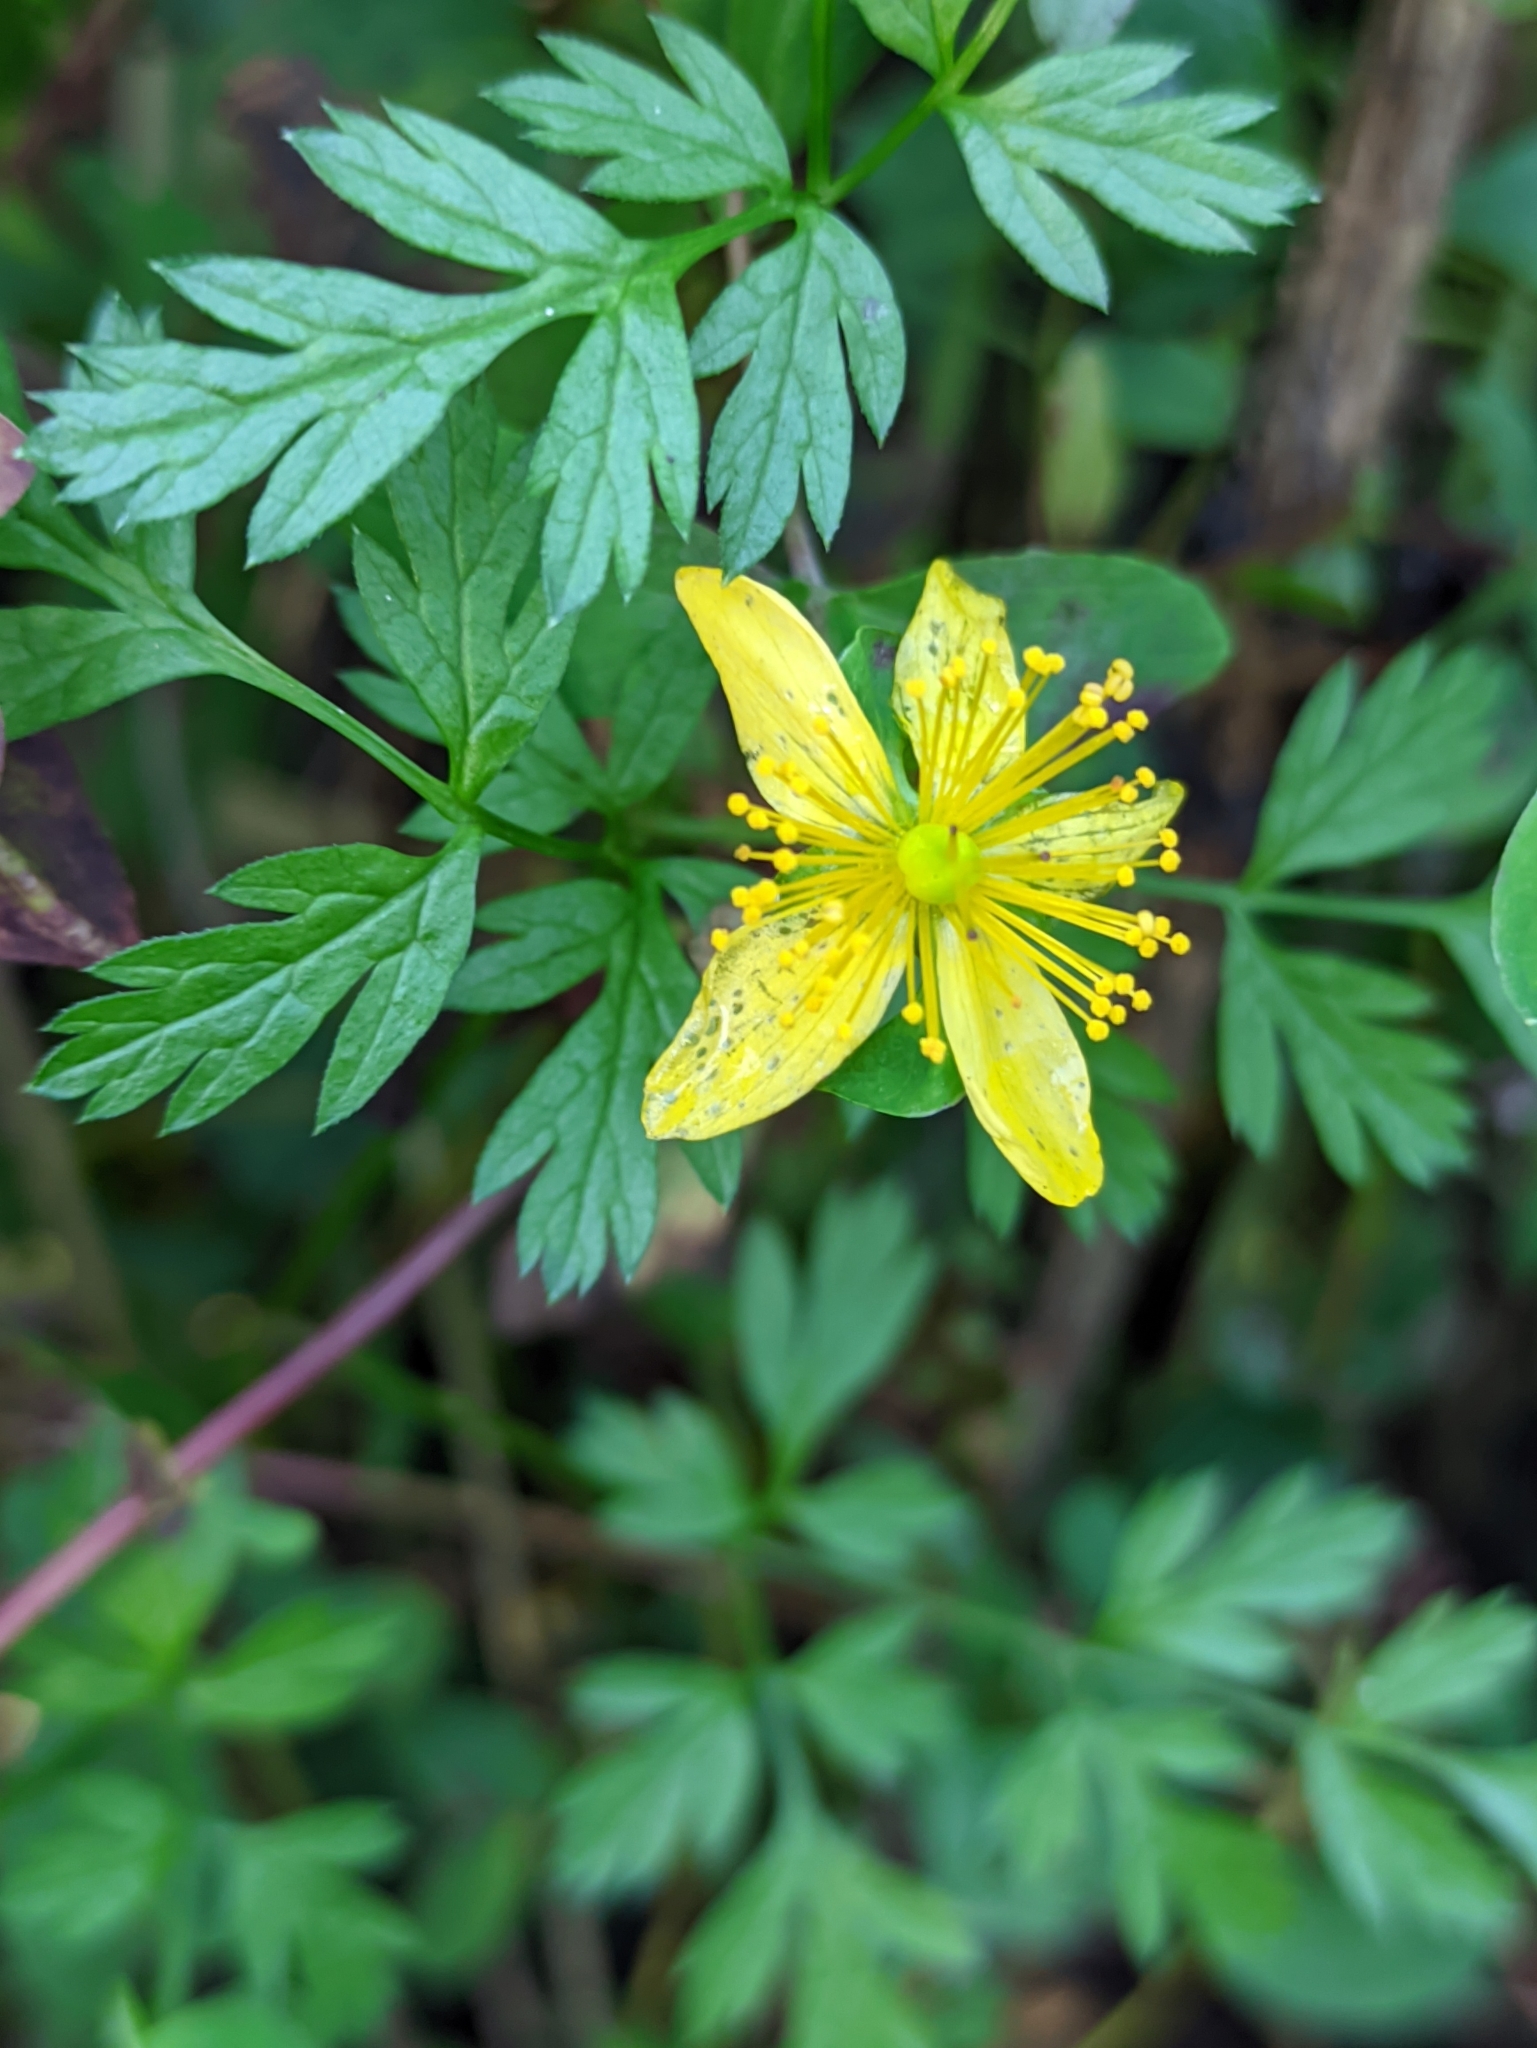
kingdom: Plantae
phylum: Tracheophyta
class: Magnoliopsida
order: Malpighiales
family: Hypericaceae
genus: Hypericum
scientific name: Hypericum maculatum
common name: Imperforate st. john's-wort
